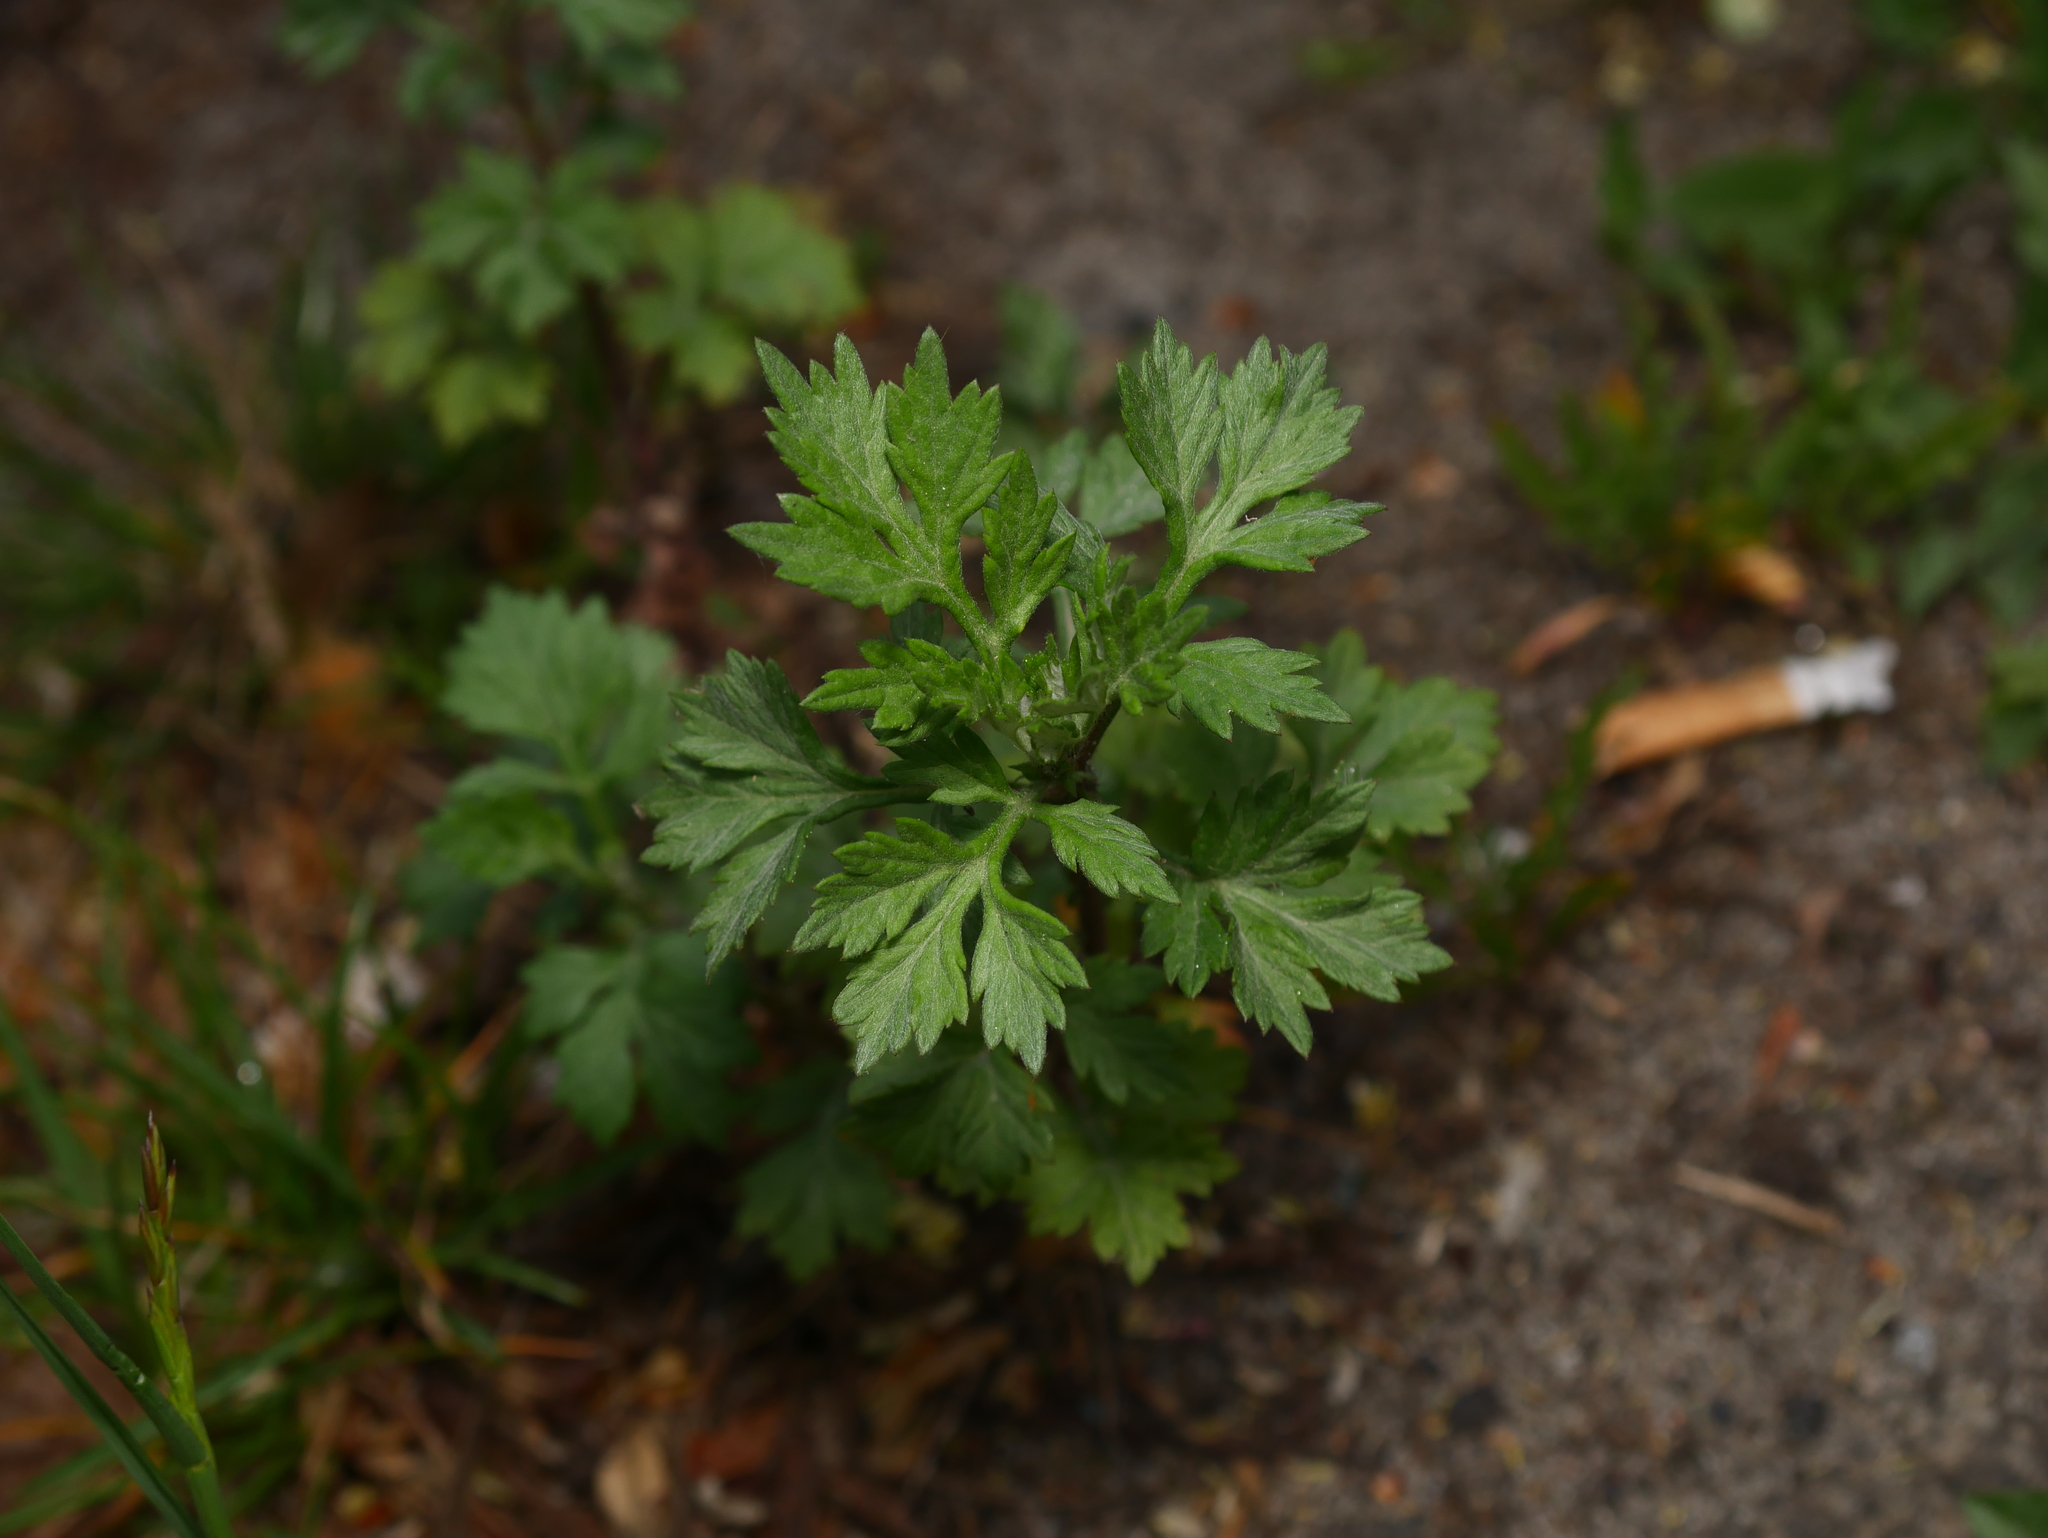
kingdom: Plantae
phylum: Tracheophyta
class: Magnoliopsida
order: Asterales
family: Asteraceae
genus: Artemisia
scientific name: Artemisia vulgaris
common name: Mugwort
